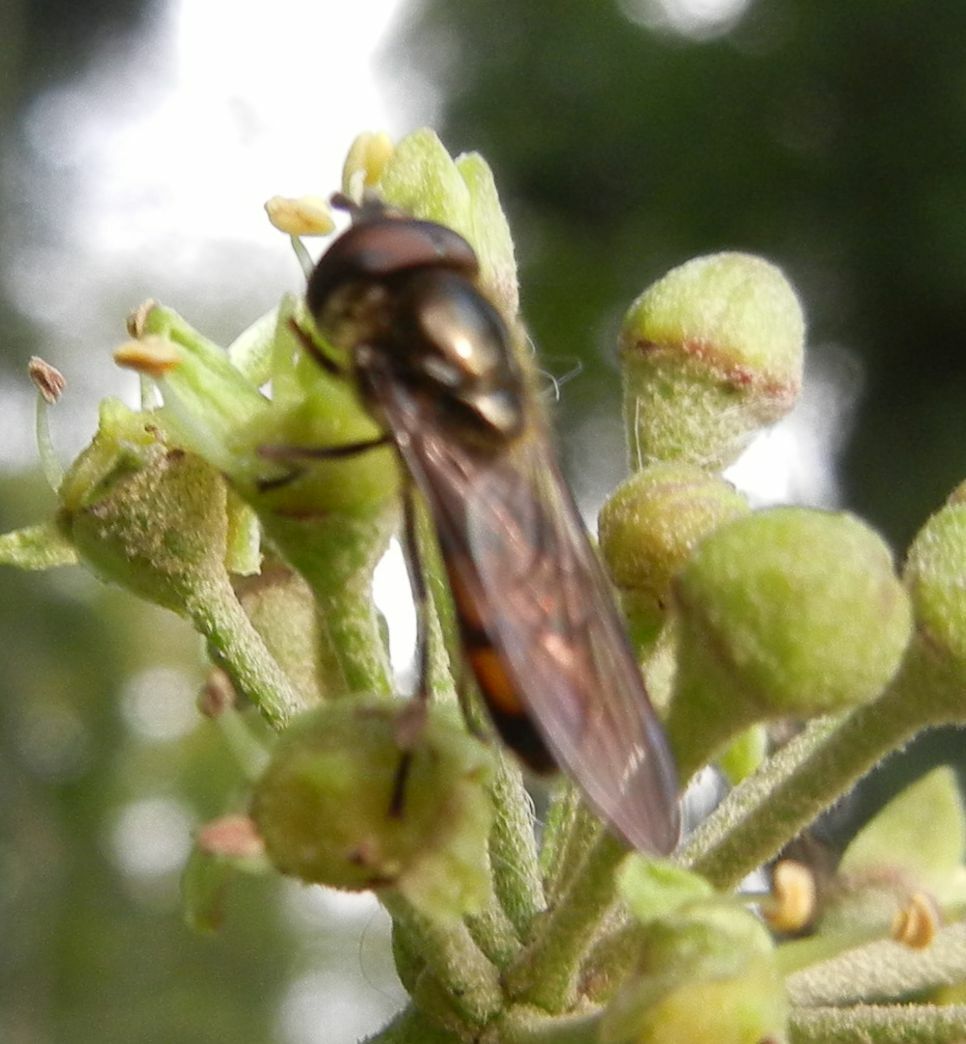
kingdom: Animalia
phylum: Arthropoda
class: Insecta
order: Diptera
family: Syrphidae
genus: Xanthandrus
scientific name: Xanthandrus comtus
